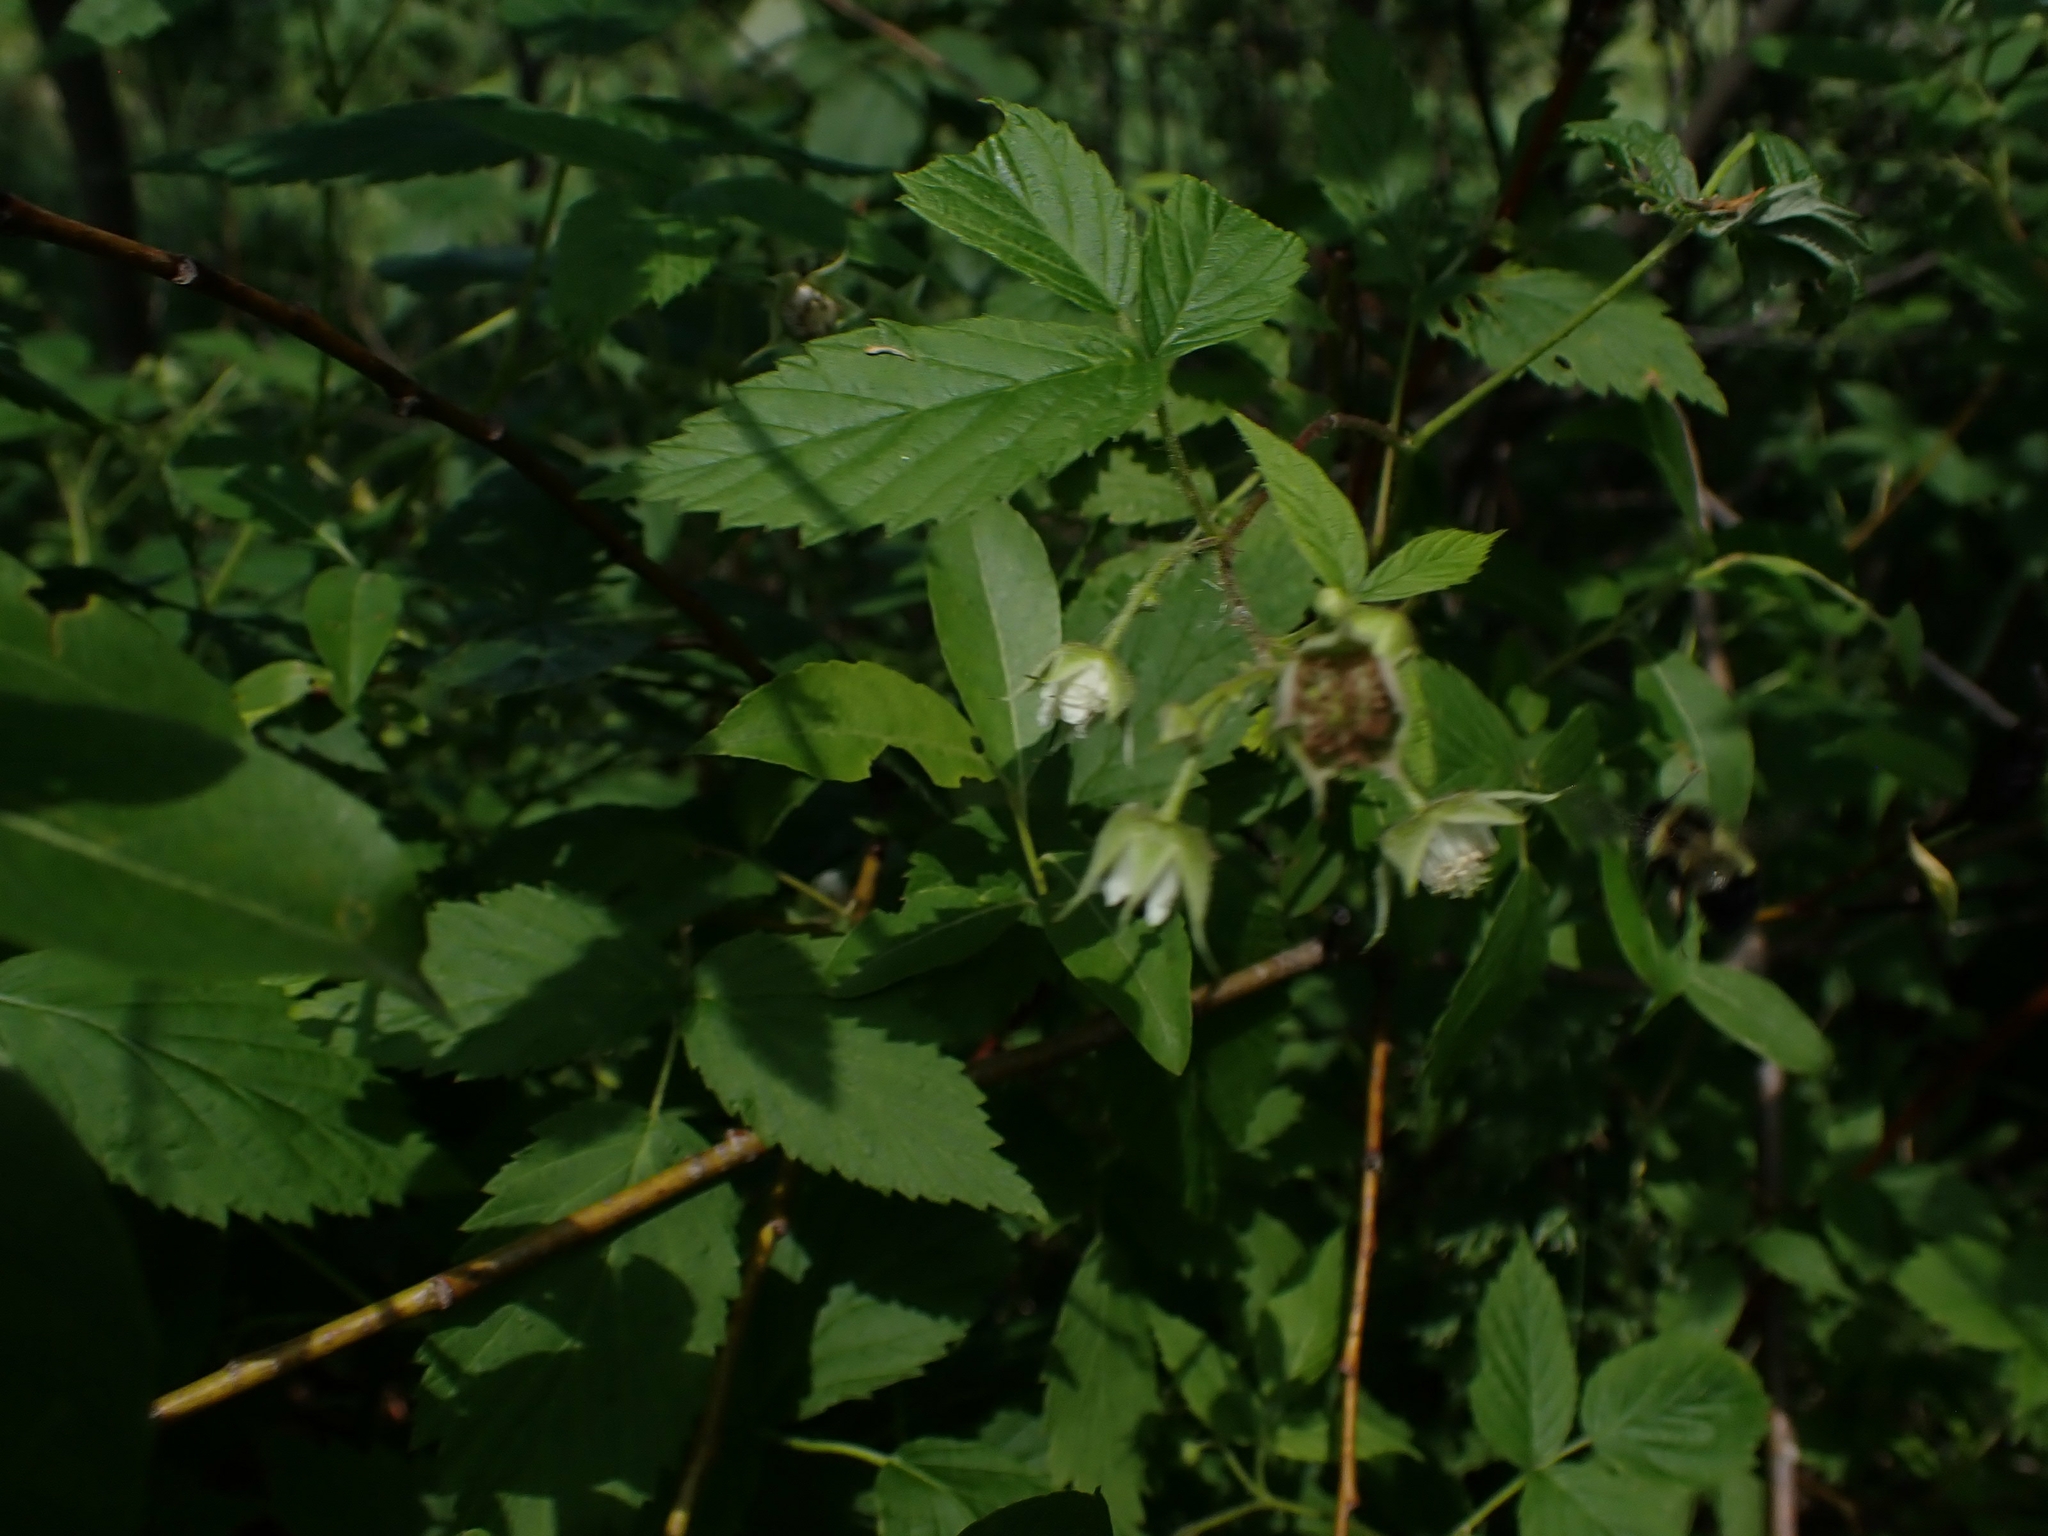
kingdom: Plantae
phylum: Tracheophyta
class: Magnoliopsida
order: Rosales
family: Rosaceae
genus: Rubus
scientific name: Rubus idaeus
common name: Raspberry
